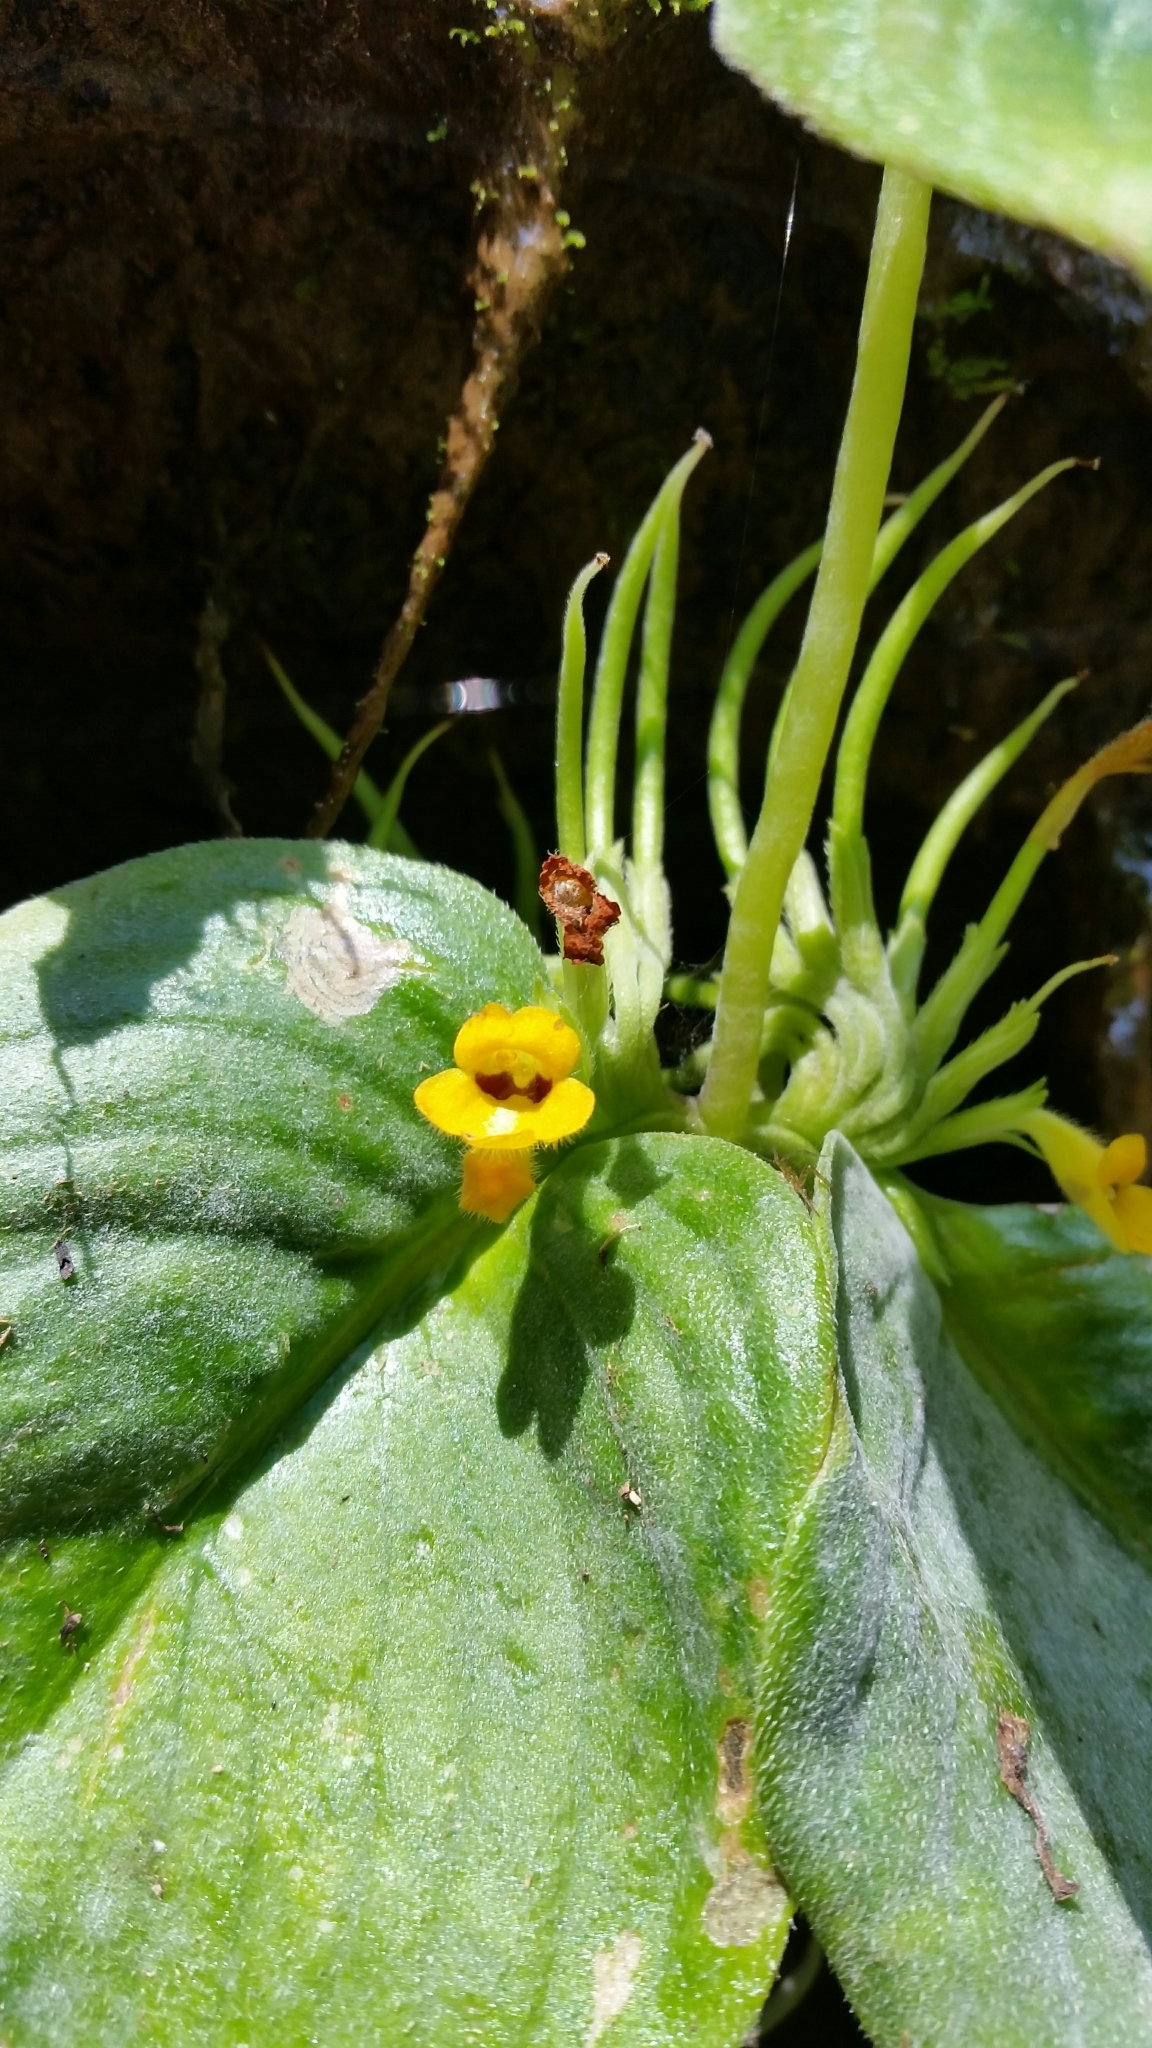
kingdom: Plantae
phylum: Tracheophyta
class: Magnoliopsida
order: Lamiales
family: Gesneriaceae
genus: Microchirita
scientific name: Microchirita bimaculata
